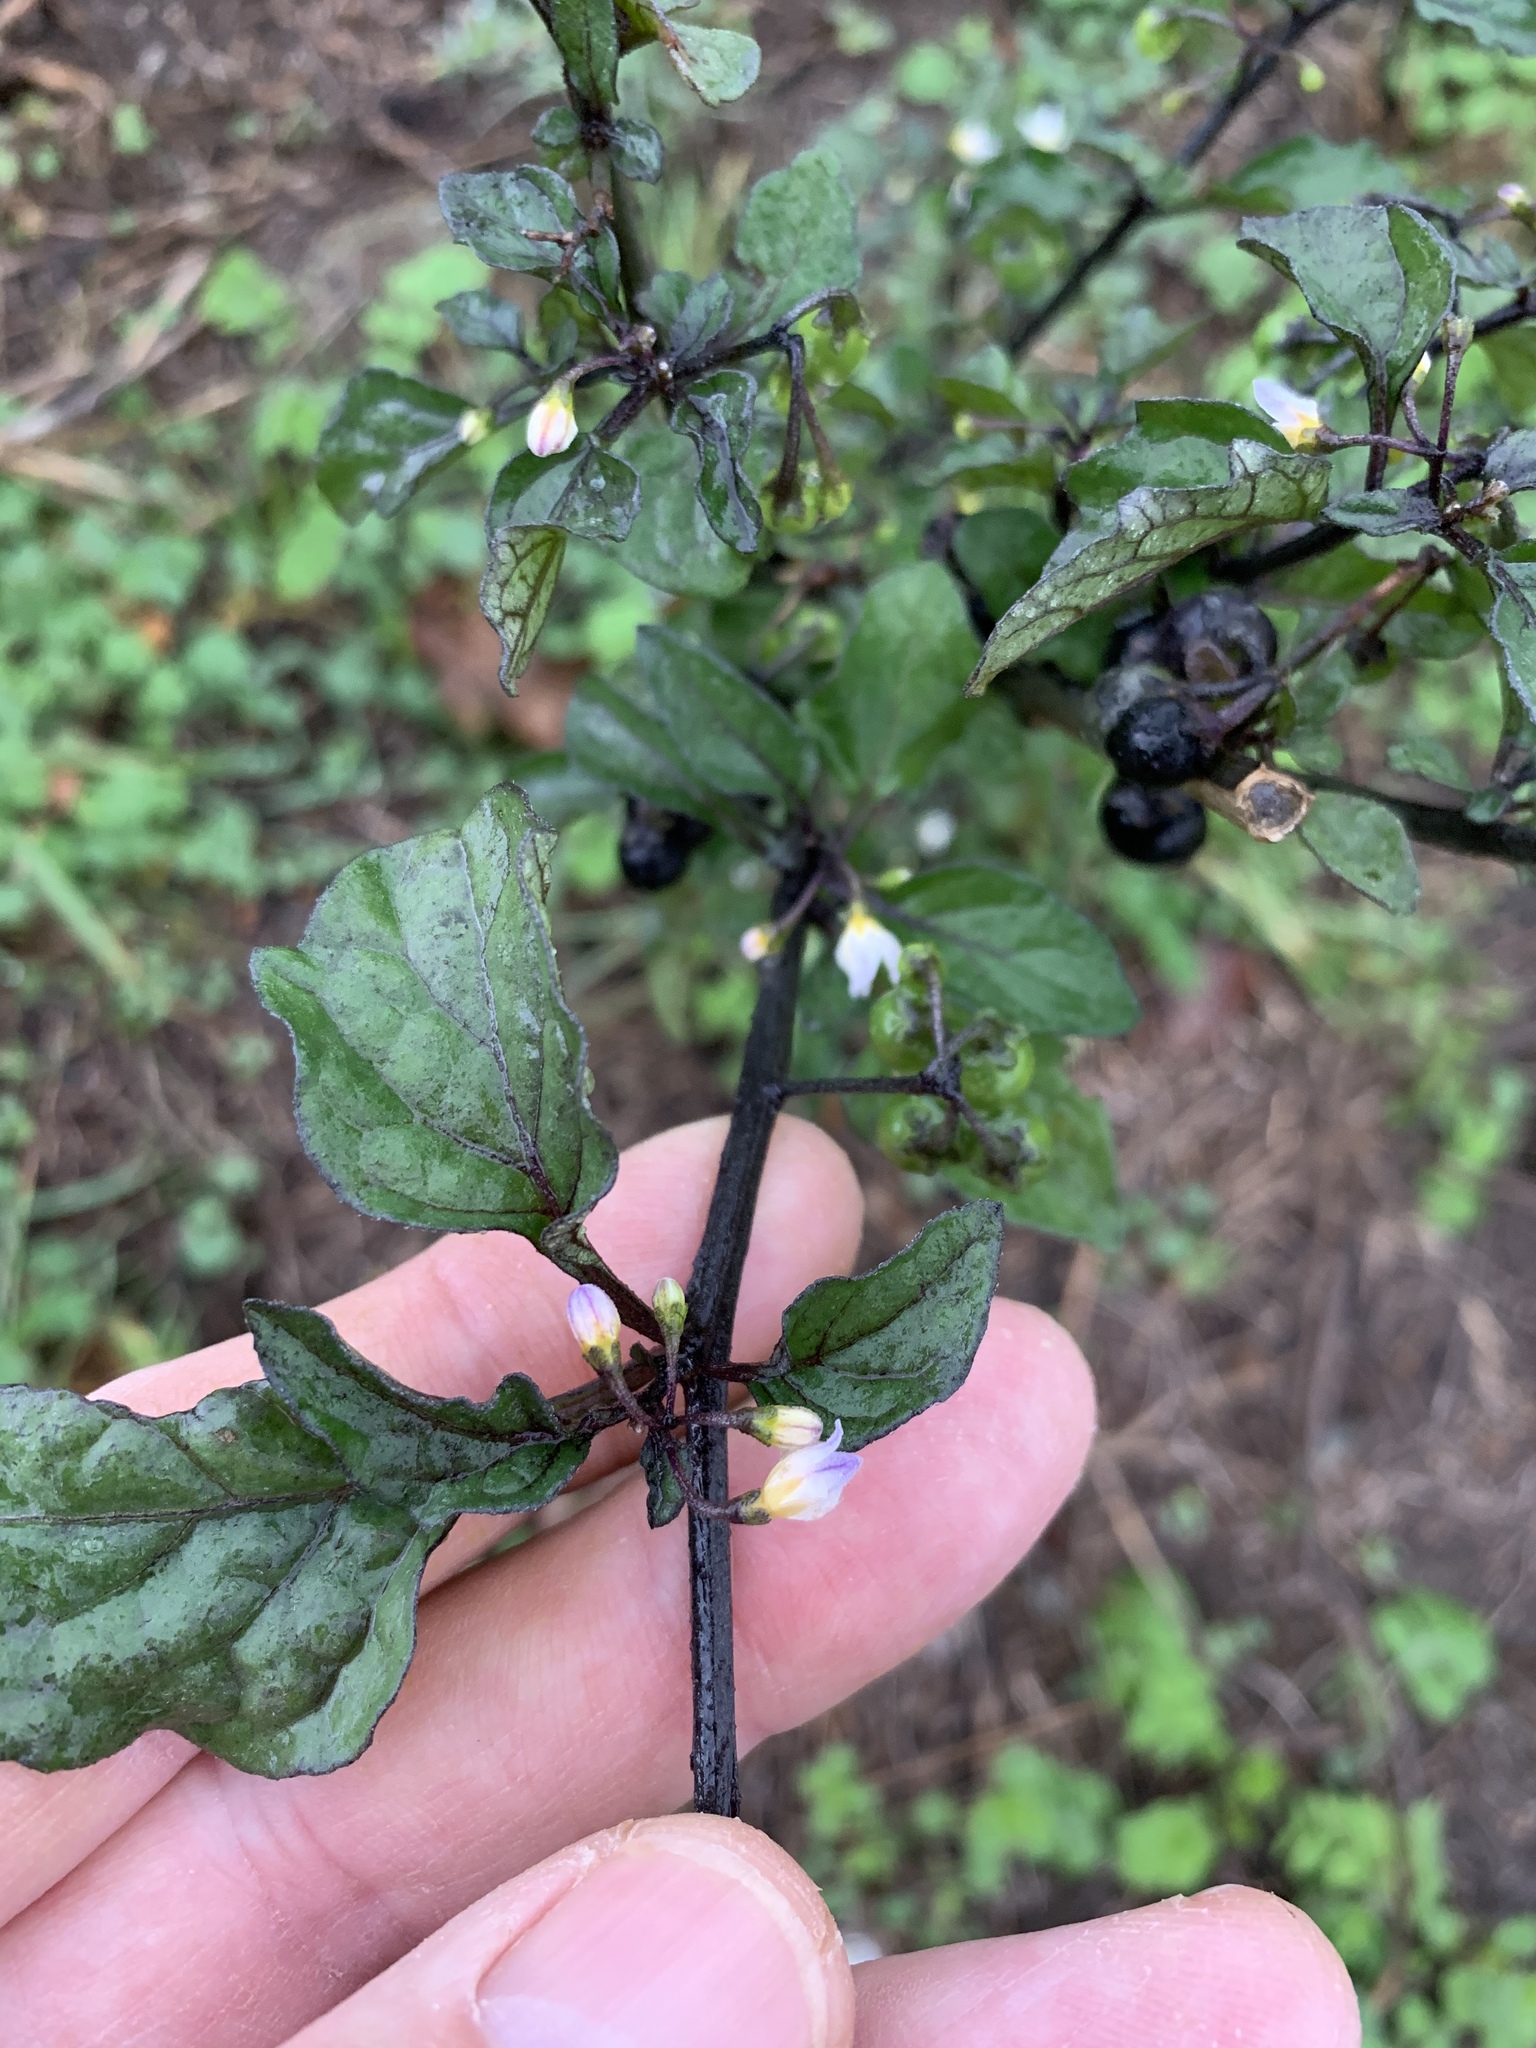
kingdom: Plantae
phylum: Tracheophyta
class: Magnoliopsida
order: Solanales
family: Solanaceae
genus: Solanum
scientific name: Solanum nigrum
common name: Black nightshade
